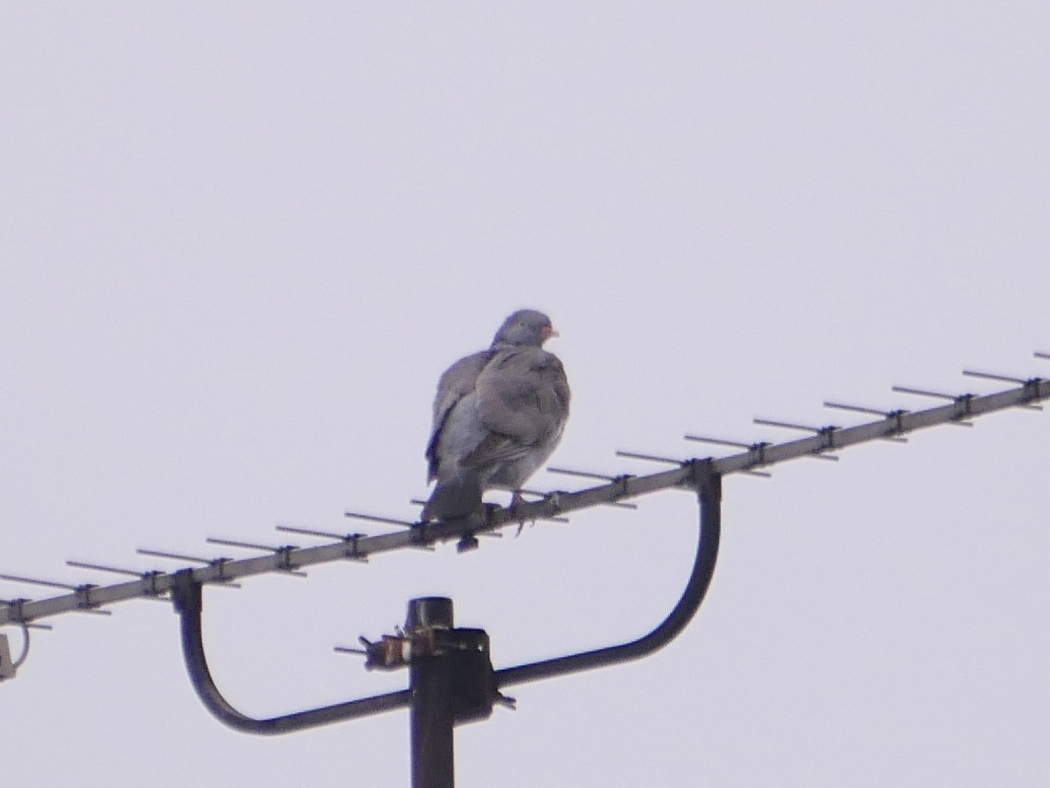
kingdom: Animalia
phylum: Chordata
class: Aves
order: Columbiformes
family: Columbidae
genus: Columba
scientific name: Columba palumbus
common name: Common wood pigeon
